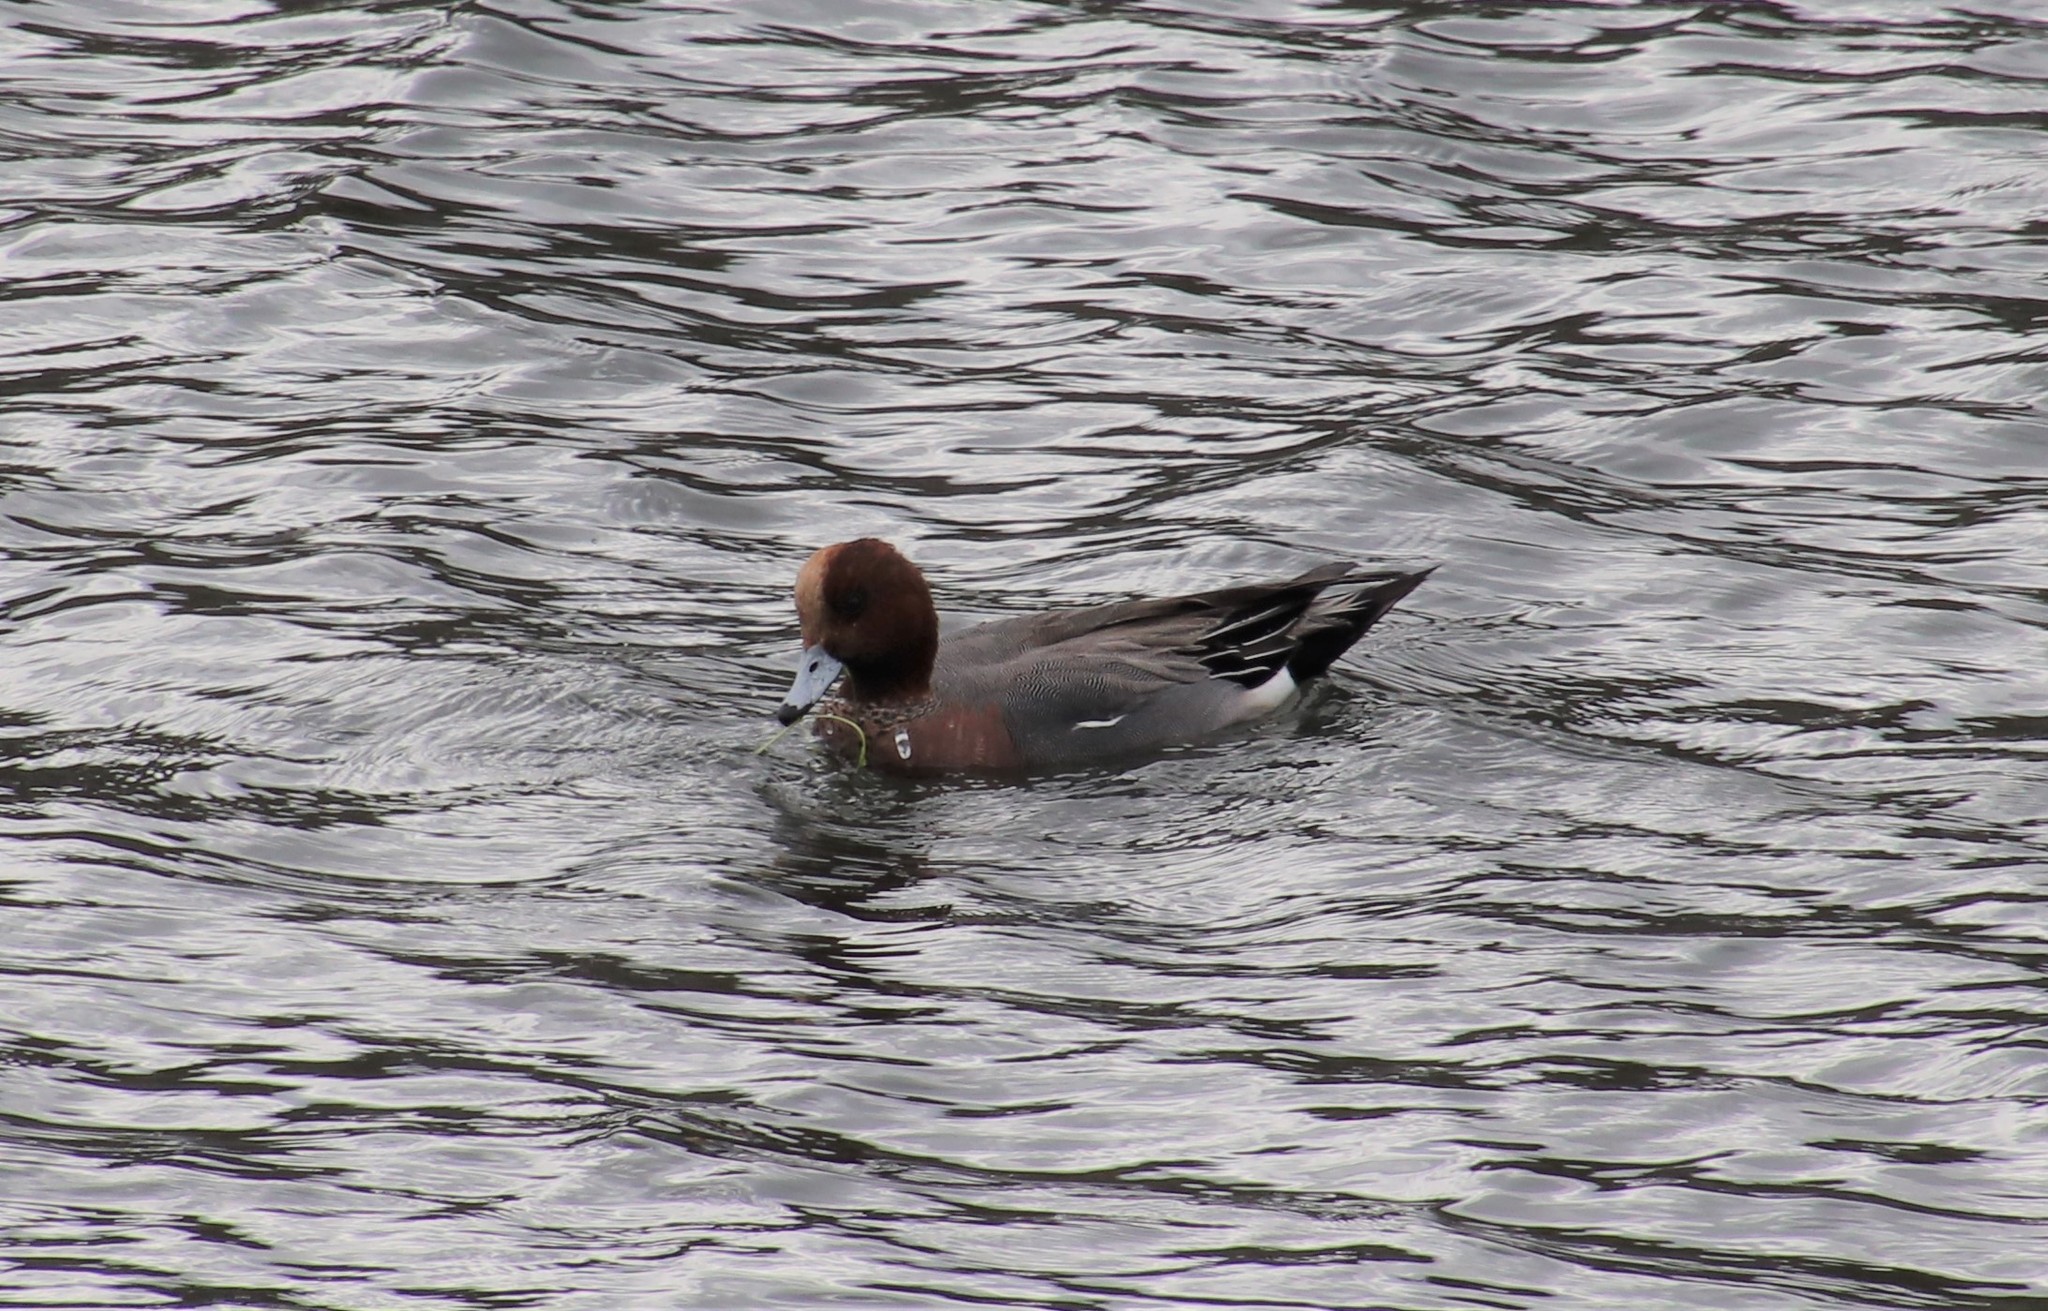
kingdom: Animalia
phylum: Chordata
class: Aves
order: Anseriformes
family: Anatidae
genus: Mareca
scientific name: Mareca penelope
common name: Eurasian wigeon
